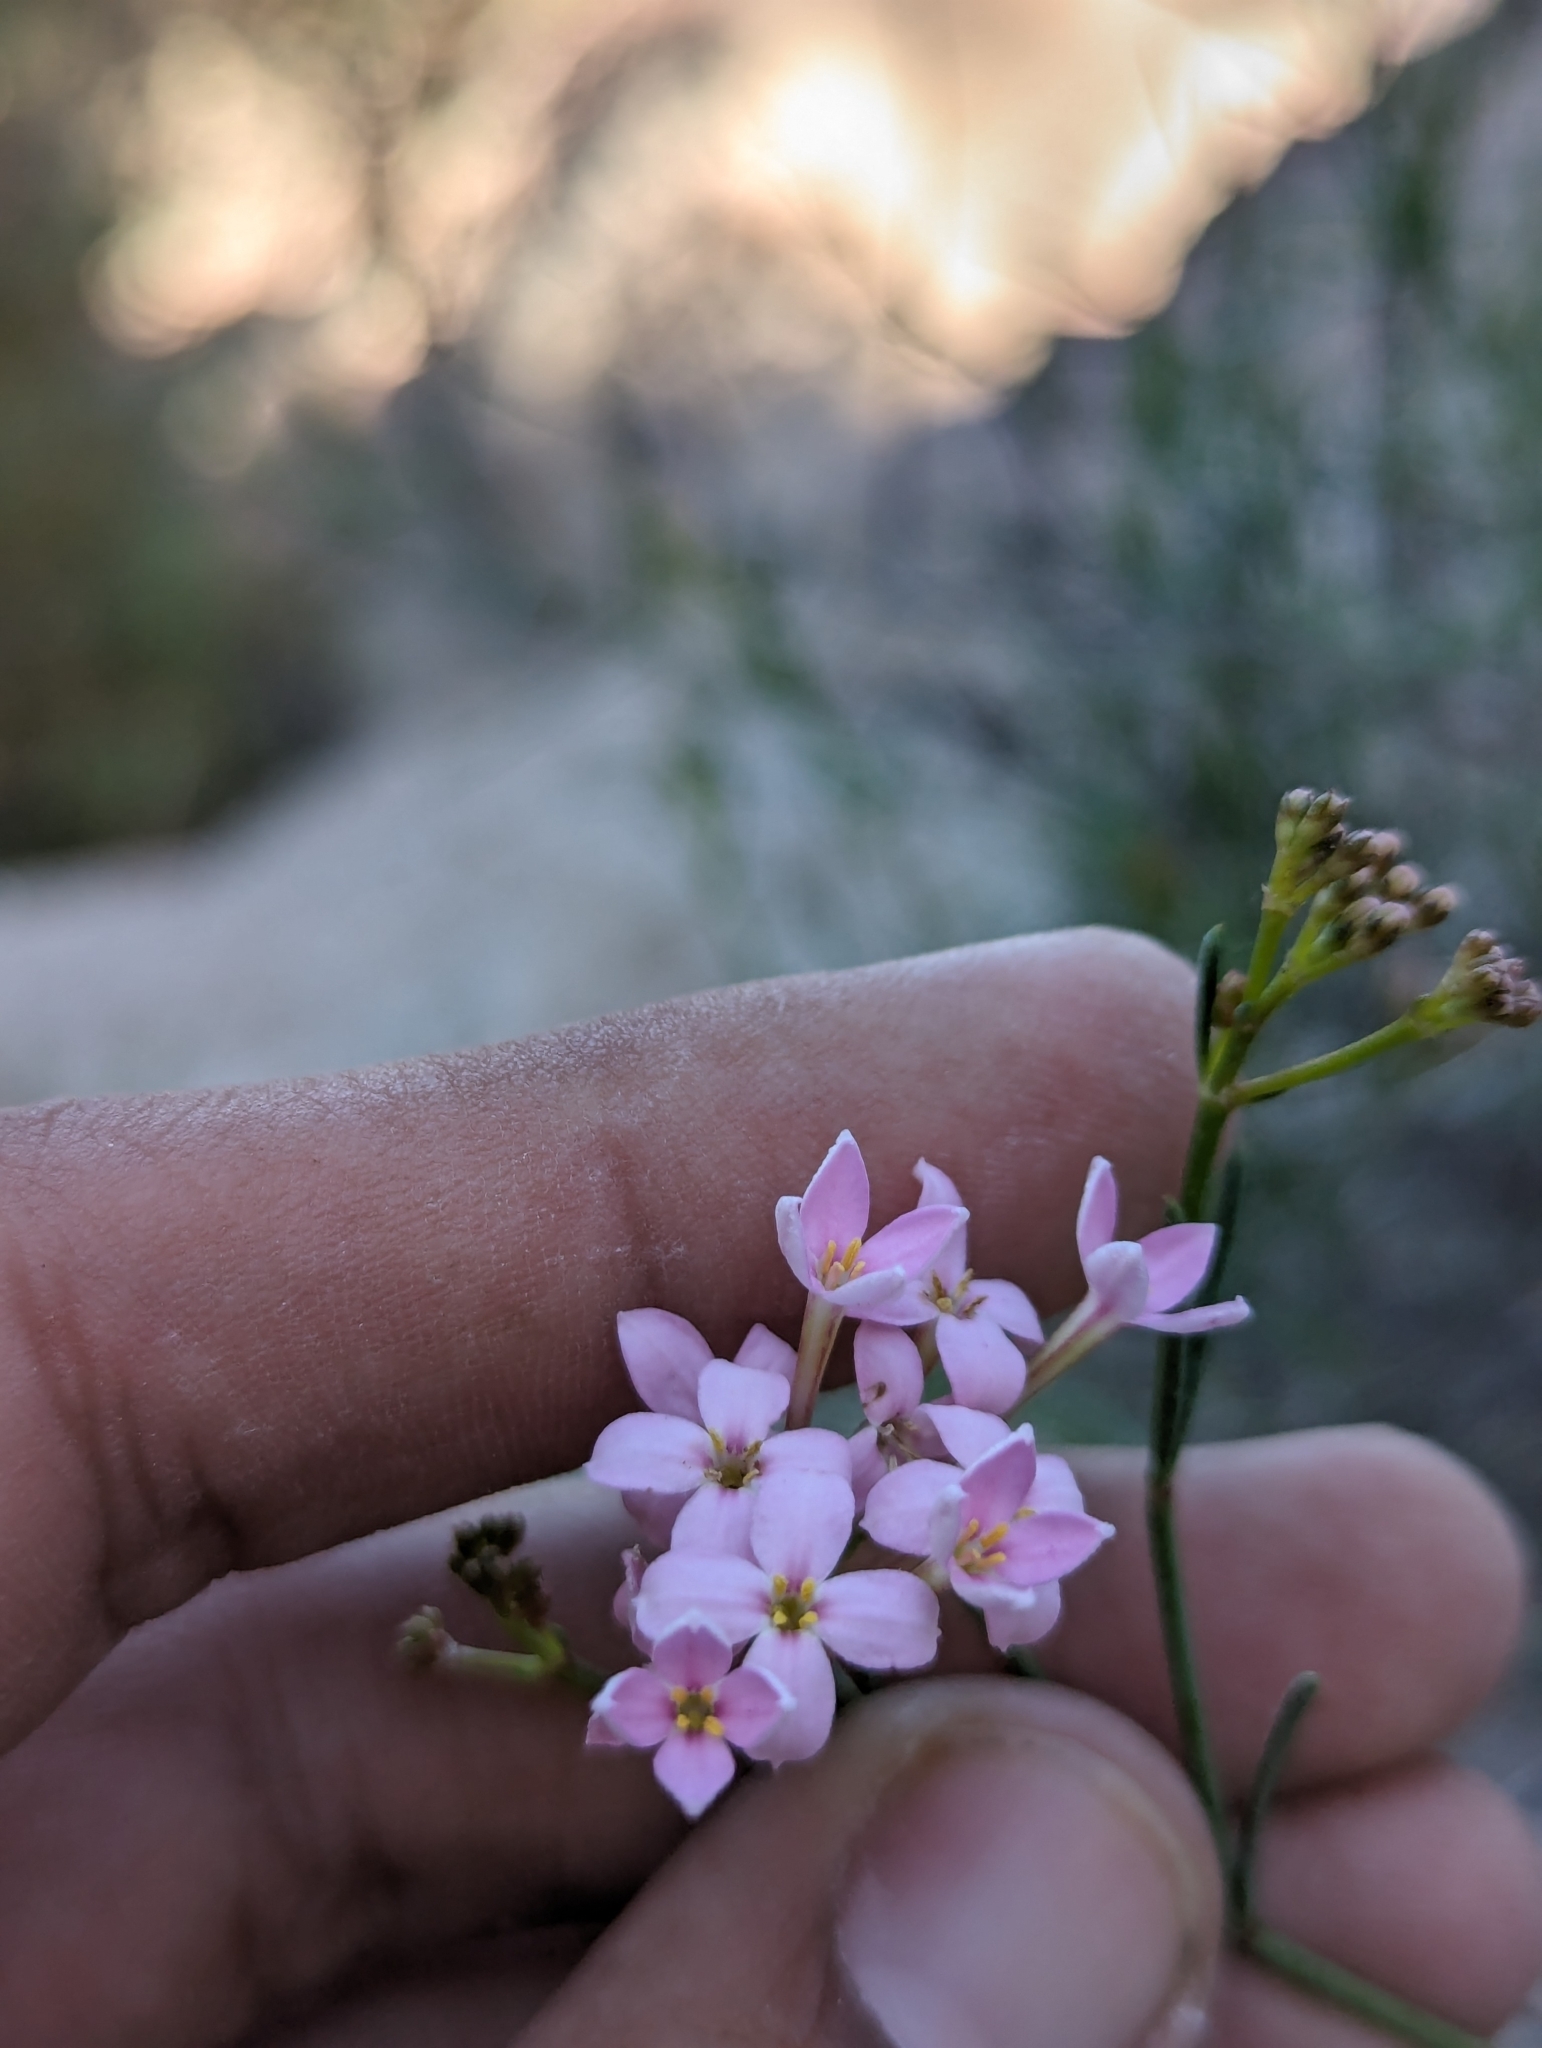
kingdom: Plantae
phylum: Tracheophyta
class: Magnoliopsida
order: Gentianales
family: Rubiaceae
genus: Stenotis
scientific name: Stenotis brevipes
